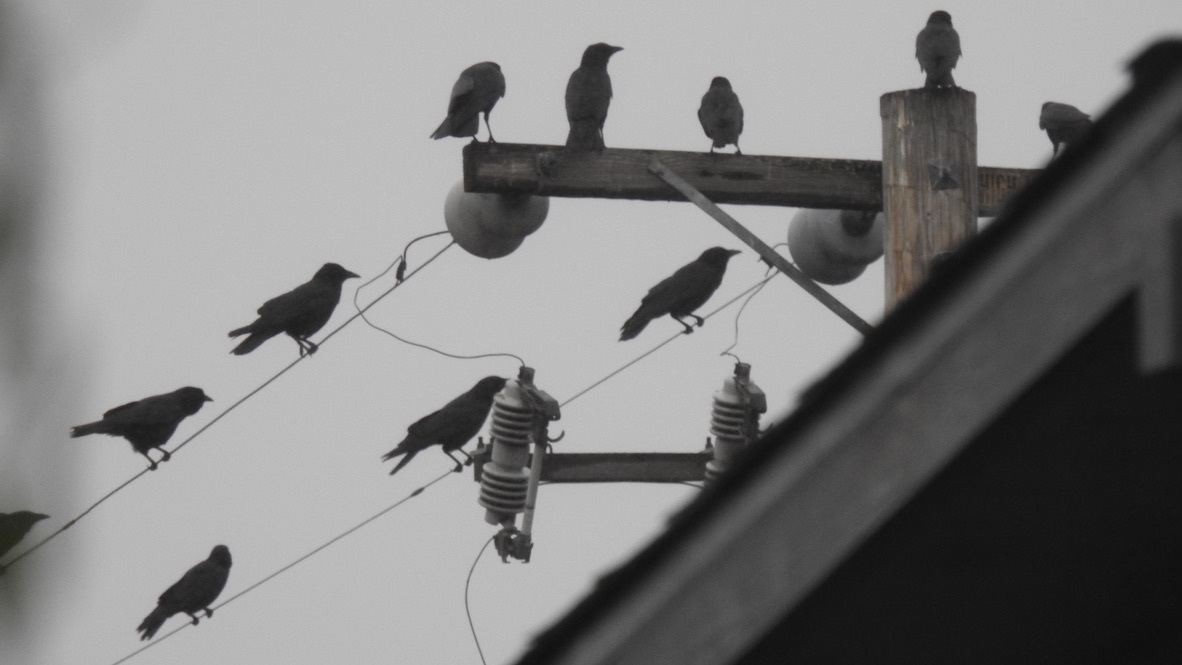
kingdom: Animalia
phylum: Chordata
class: Aves
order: Passeriformes
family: Corvidae
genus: Corvus
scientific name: Corvus brachyrhynchos
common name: American crow
